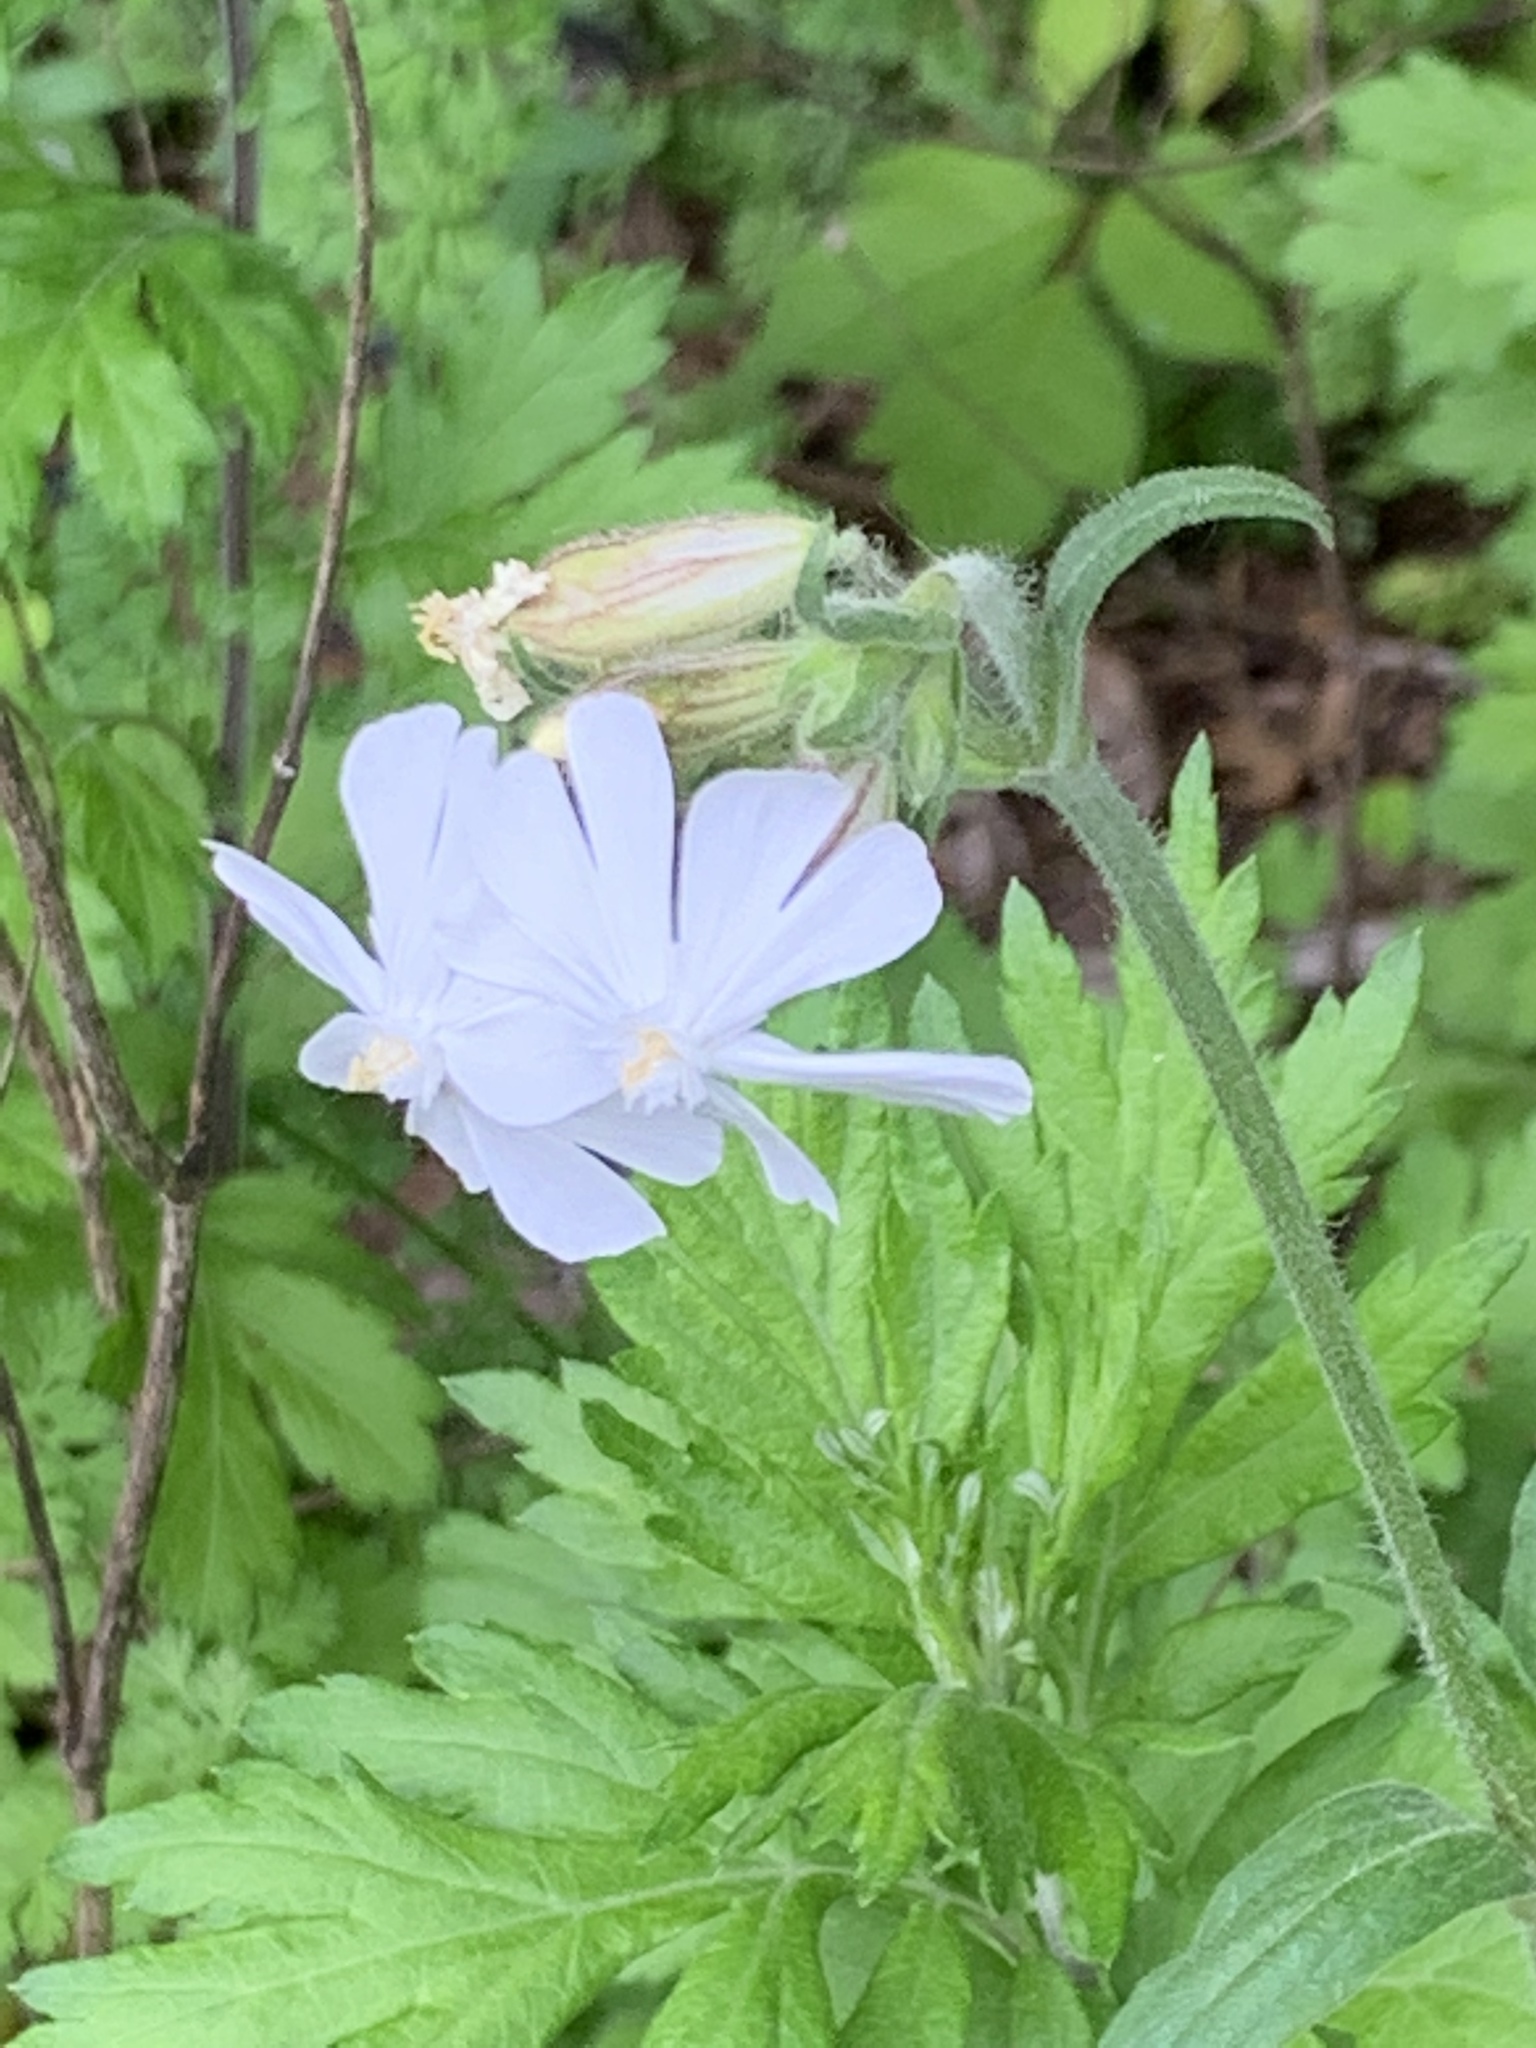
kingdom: Plantae
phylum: Tracheophyta
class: Magnoliopsida
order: Caryophyllales
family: Caryophyllaceae
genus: Silene
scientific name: Silene latifolia
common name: White campion
